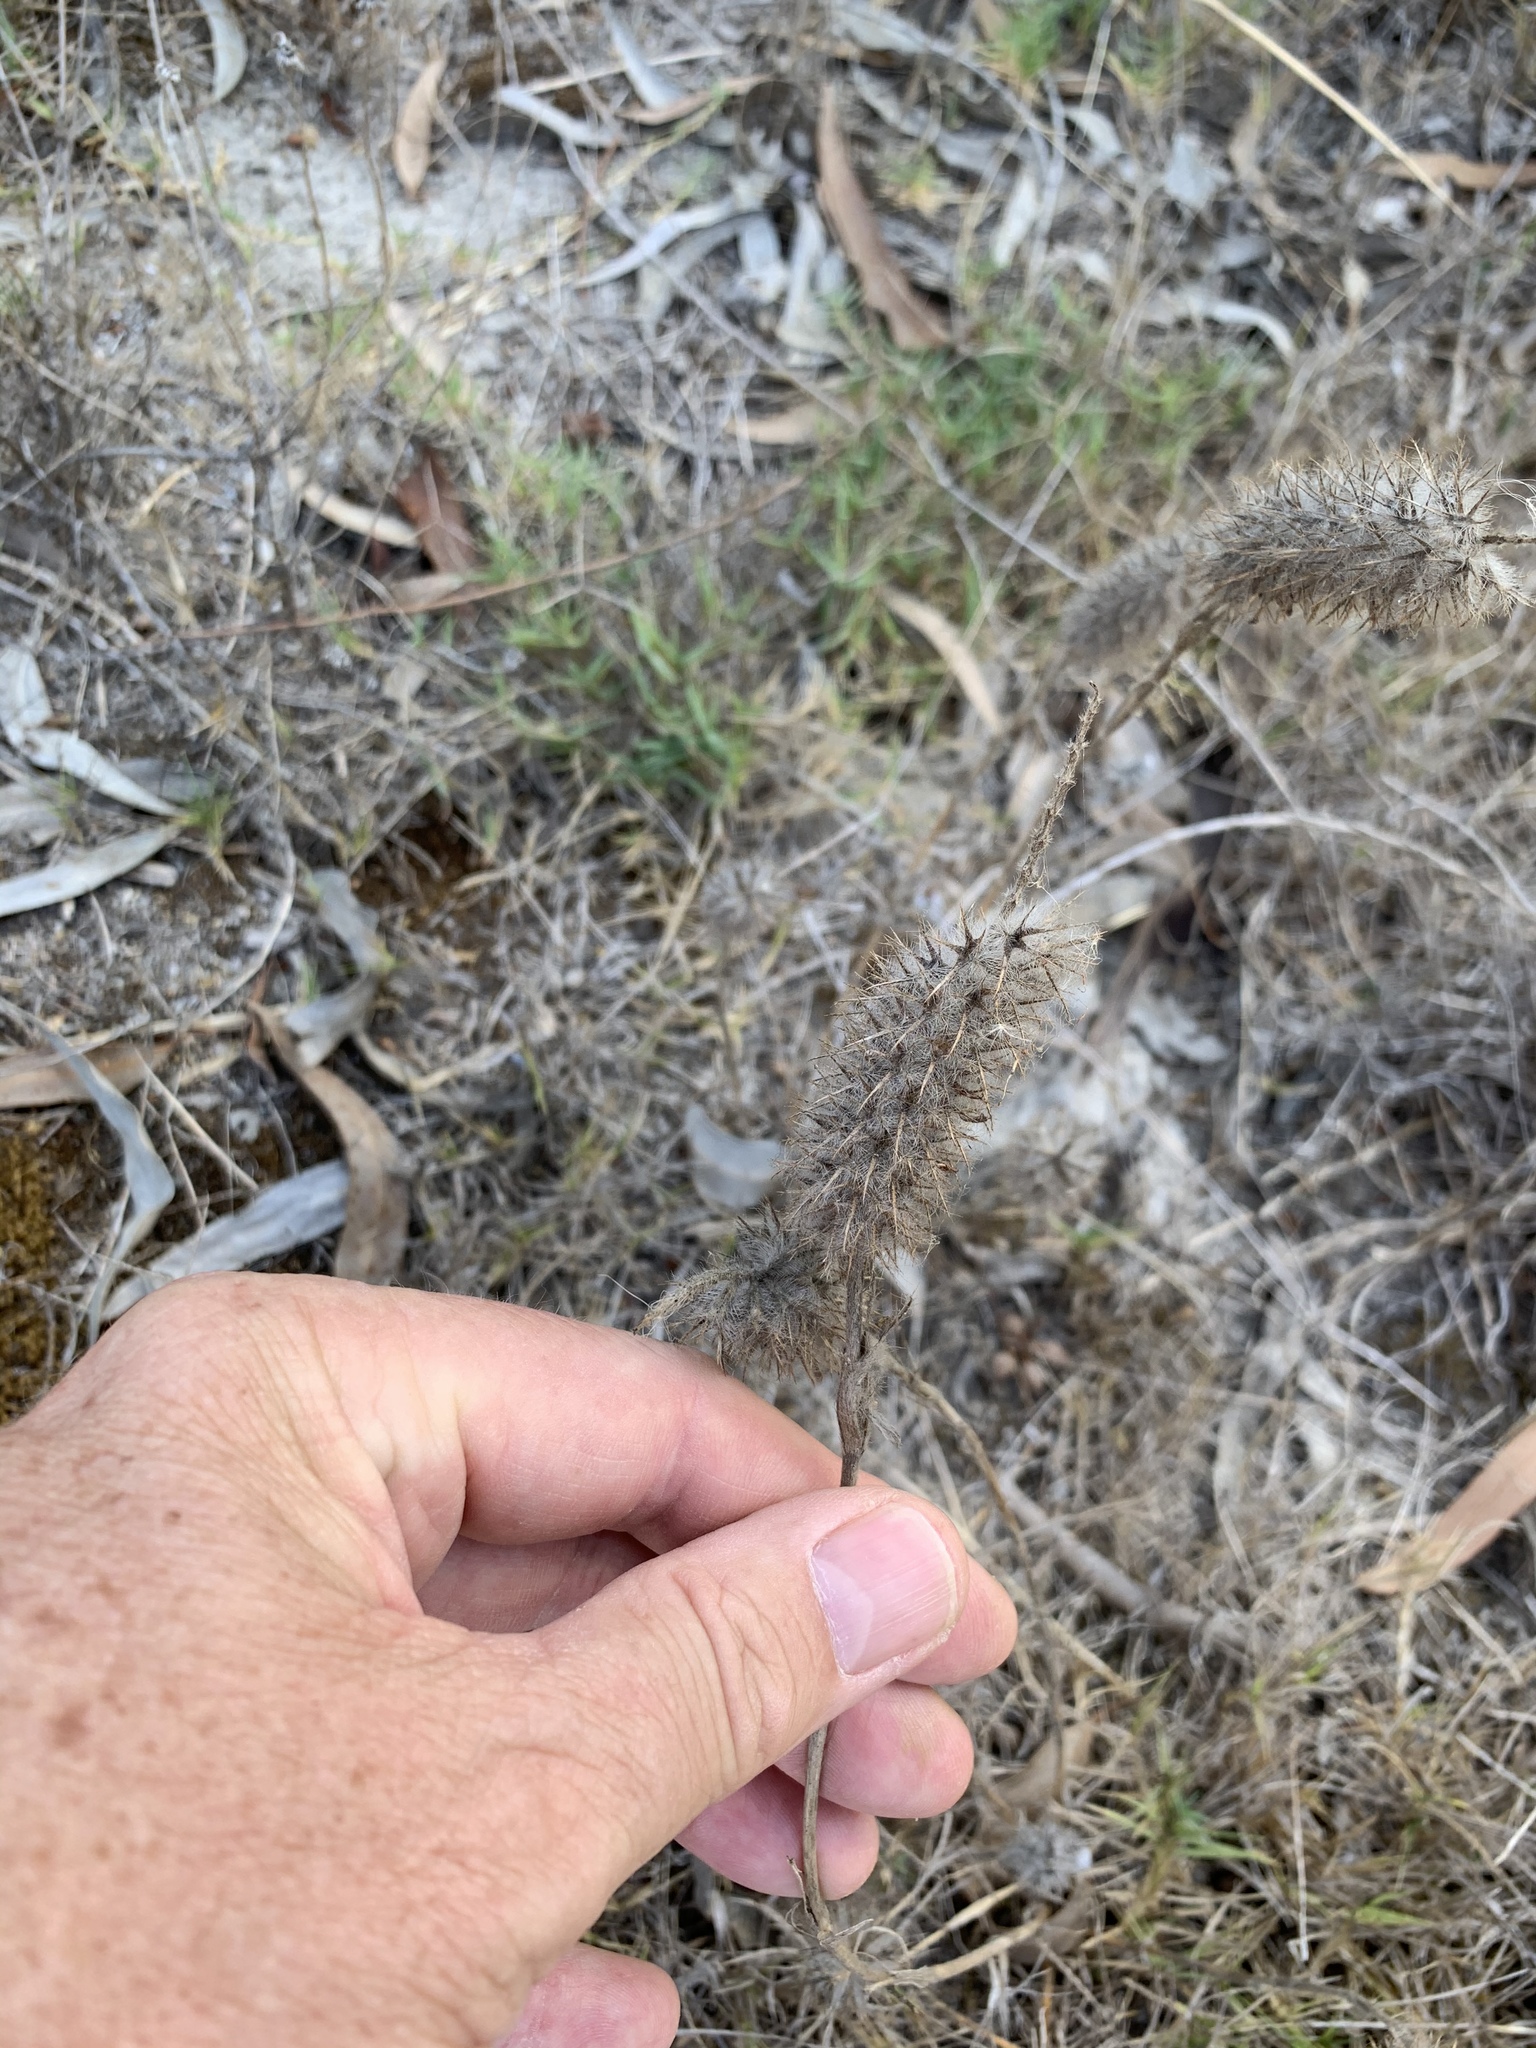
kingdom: Plantae
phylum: Tracheophyta
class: Magnoliopsida
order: Fabales
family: Fabaceae
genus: Trifolium
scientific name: Trifolium angustifolium
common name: Narrow clover
